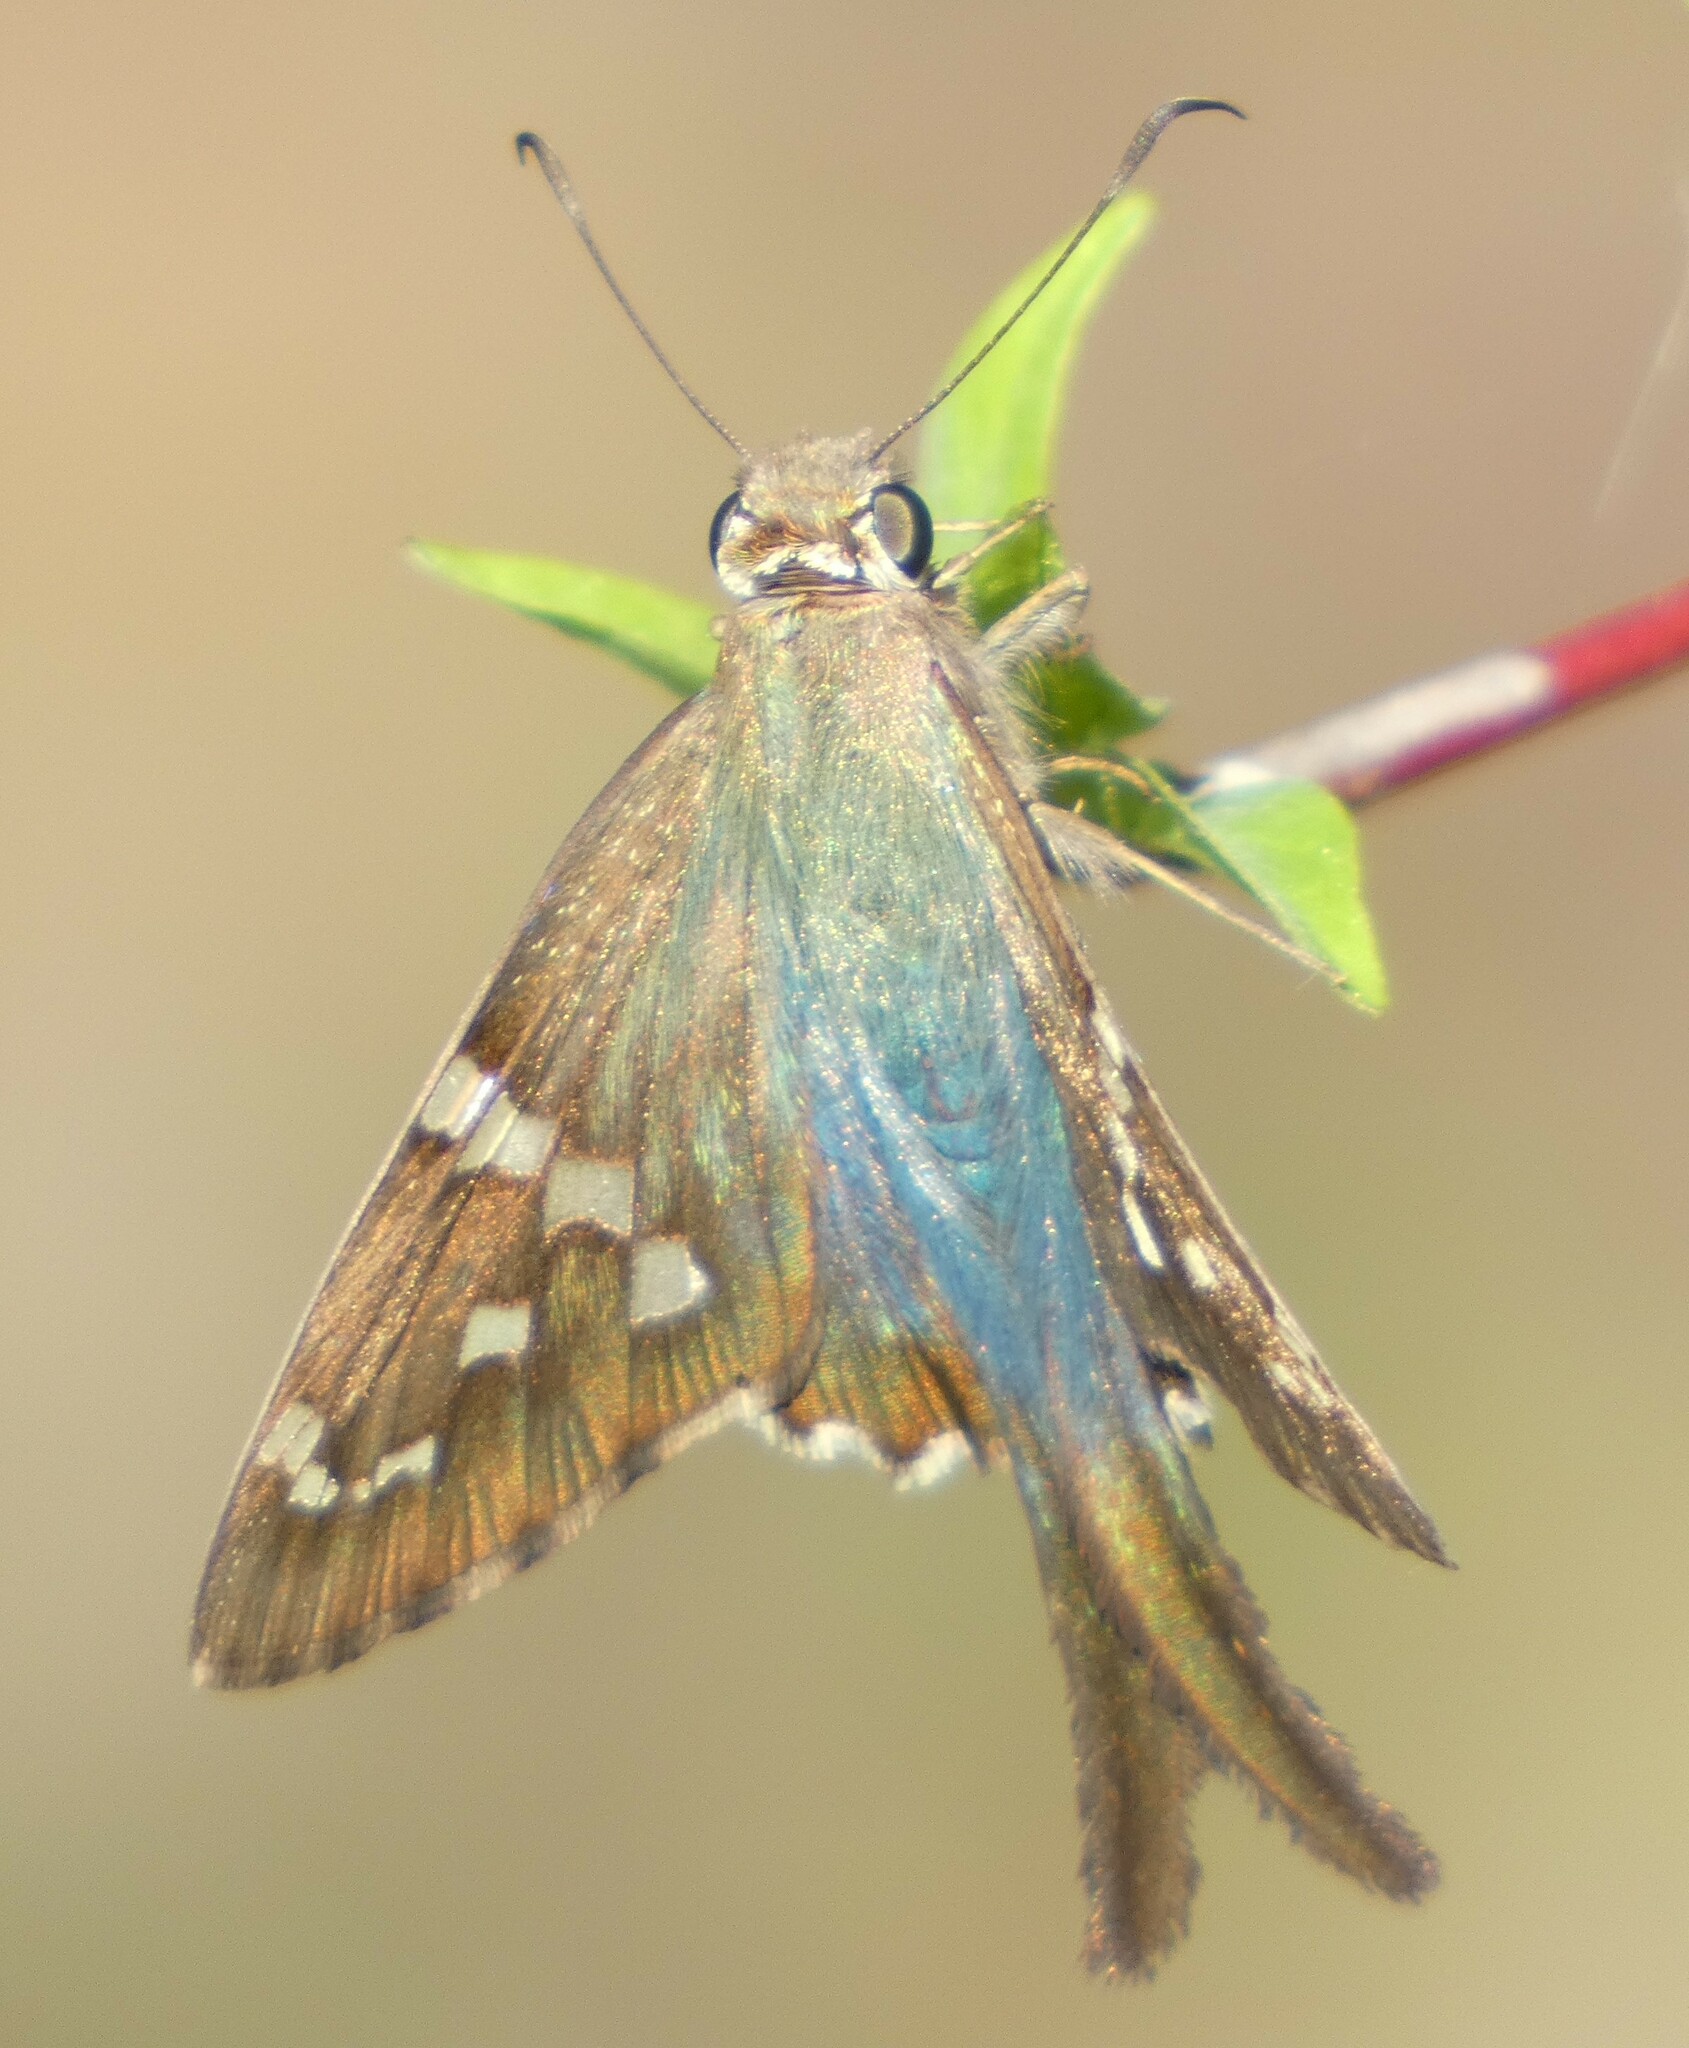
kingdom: Animalia
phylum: Arthropoda
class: Insecta
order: Lepidoptera
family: Hesperiidae
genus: Urbanus
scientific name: Urbanus proteus
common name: Long-tailed skipper
